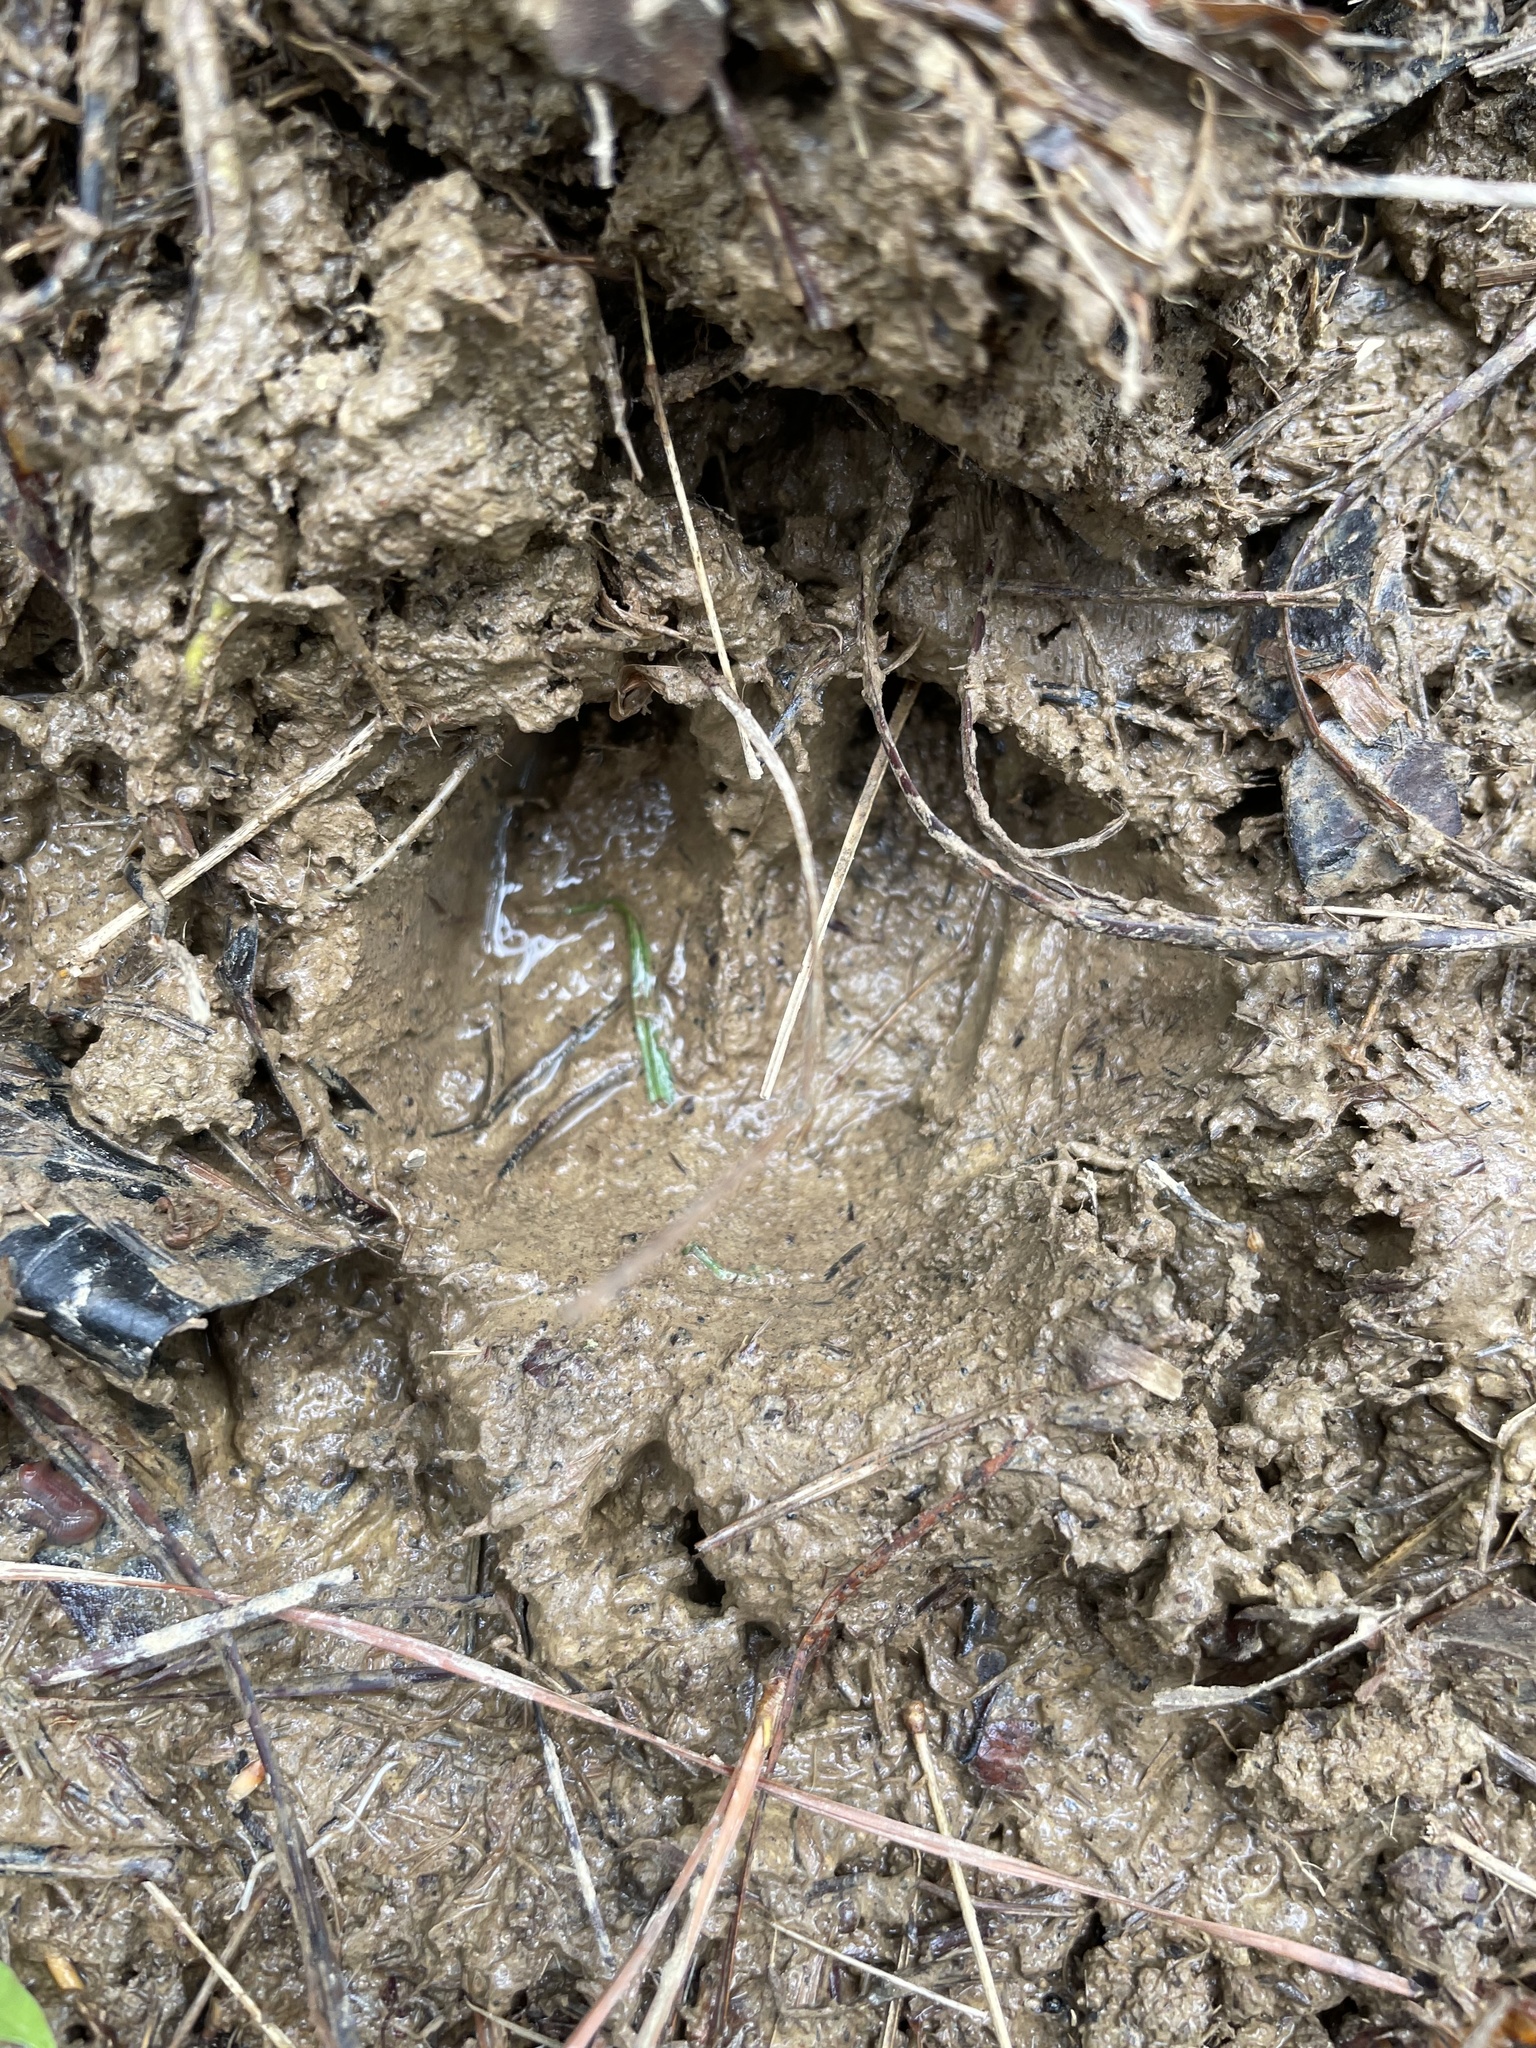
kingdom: Animalia
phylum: Chordata
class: Mammalia
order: Artiodactyla
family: Suidae
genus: Sus
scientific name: Sus scrofa
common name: Wild boar
